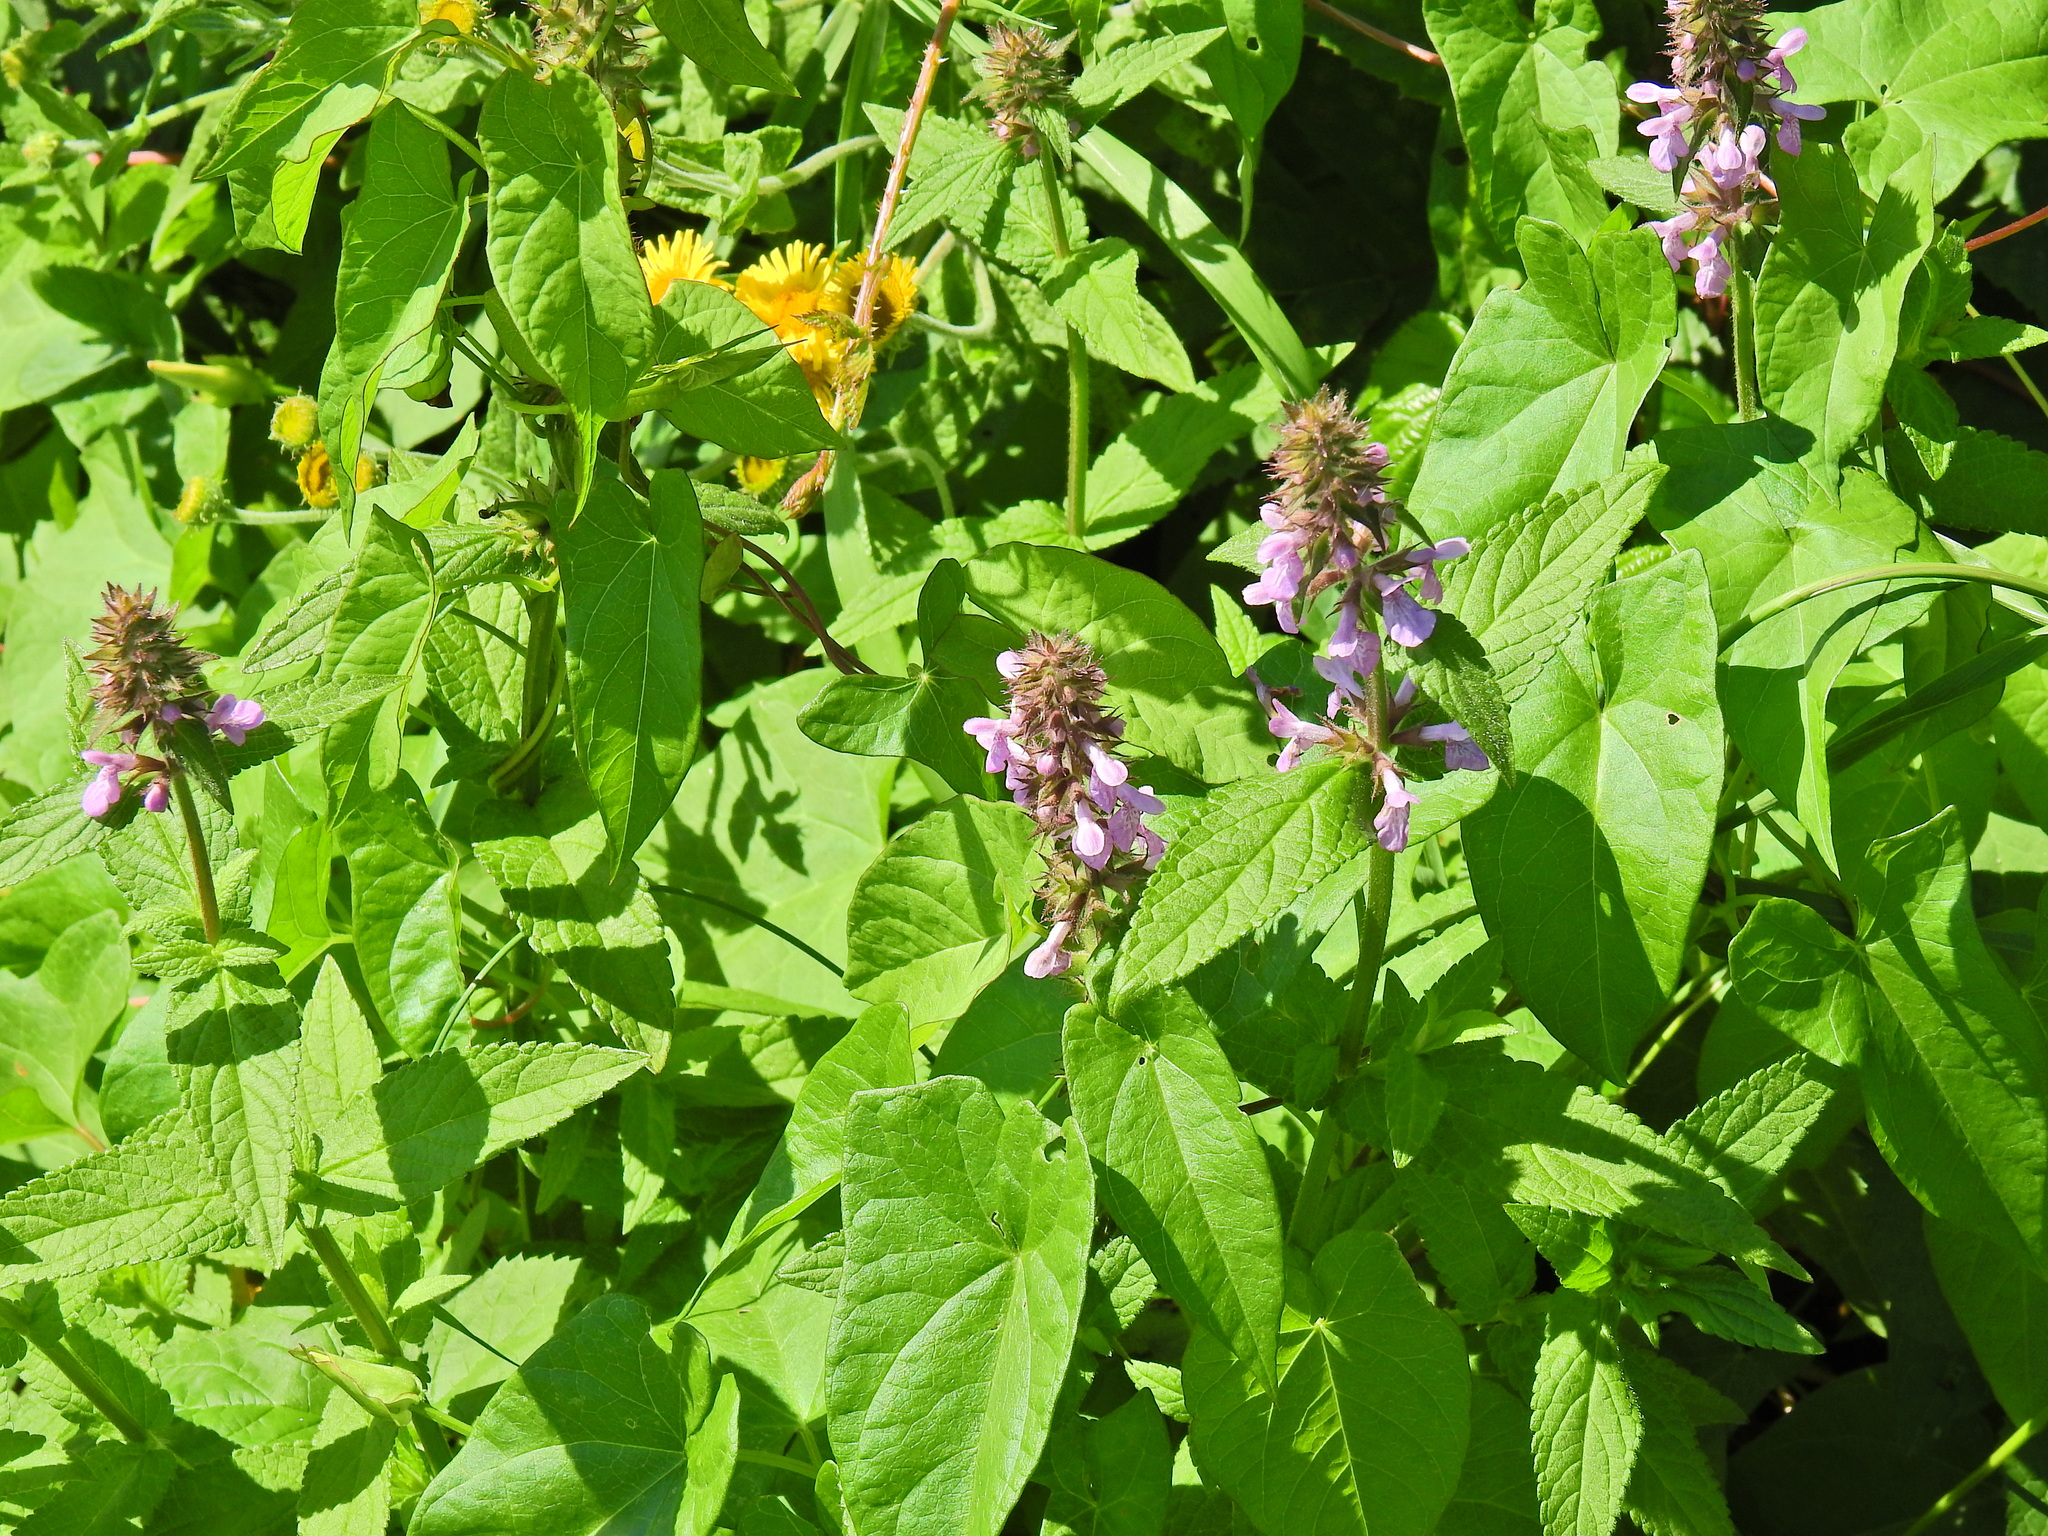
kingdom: Plantae
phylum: Tracheophyta
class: Magnoliopsida
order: Lamiales
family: Lamiaceae
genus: Stachys
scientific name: Stachys palustris
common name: Marsh woundwort
